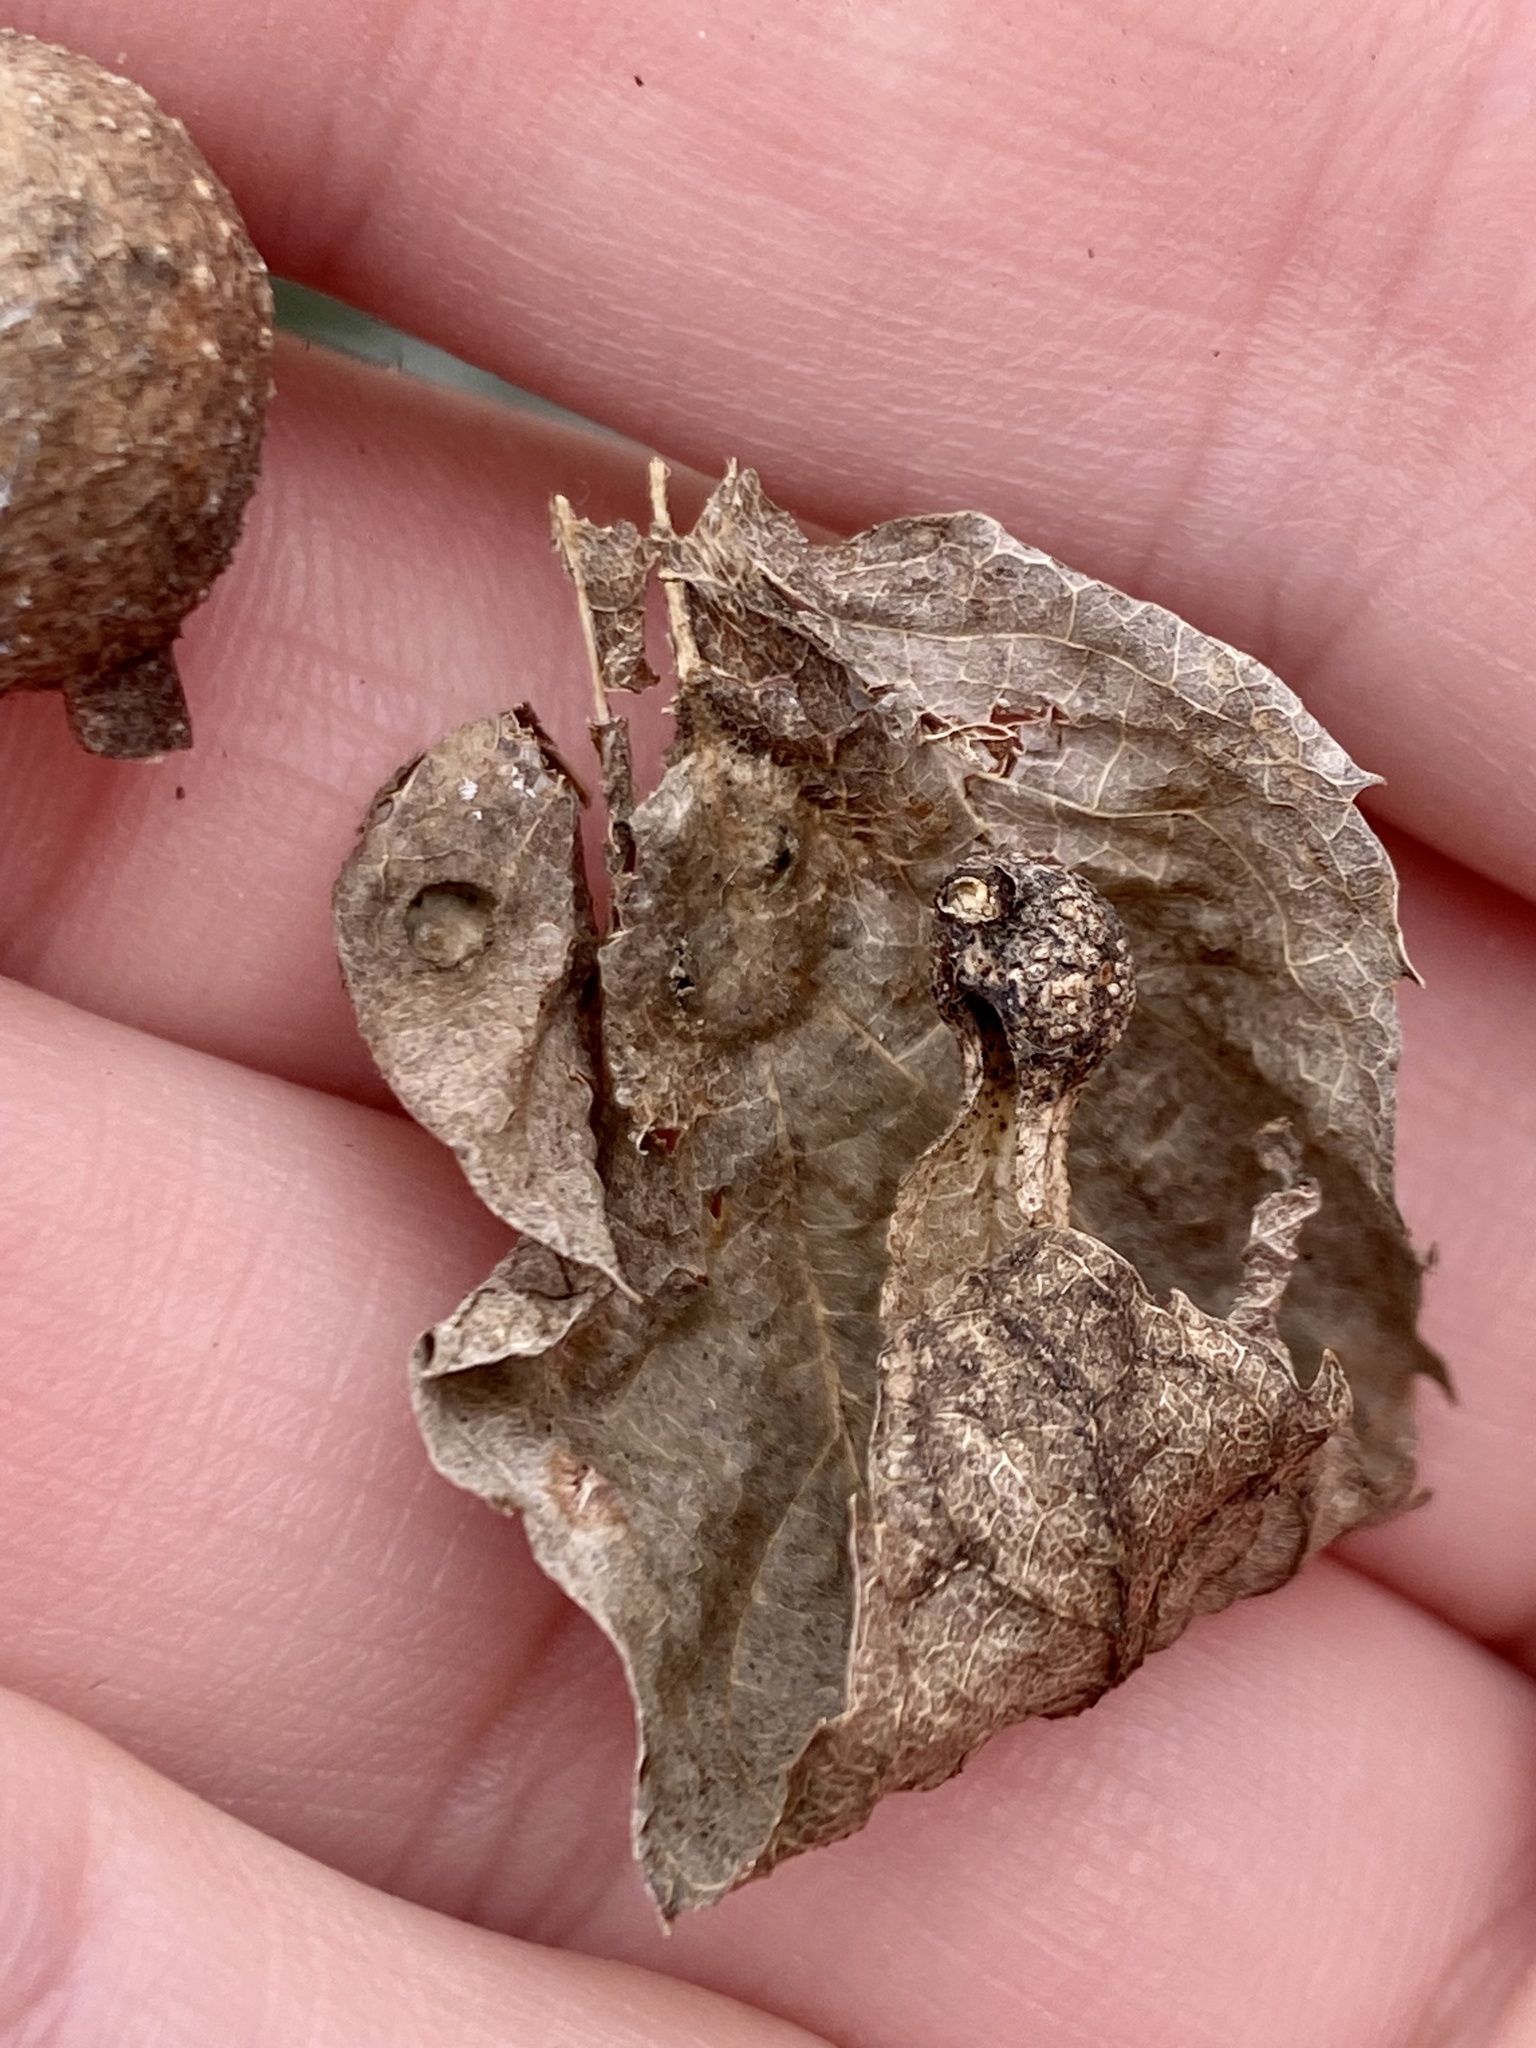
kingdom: Animalia
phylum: Arthropoda
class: Insecta
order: Hemiptera
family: Aphalaridae
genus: Pachypsylla
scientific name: Pachypsylla celtidismamma
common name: Hackberry nipplegall psyllid
